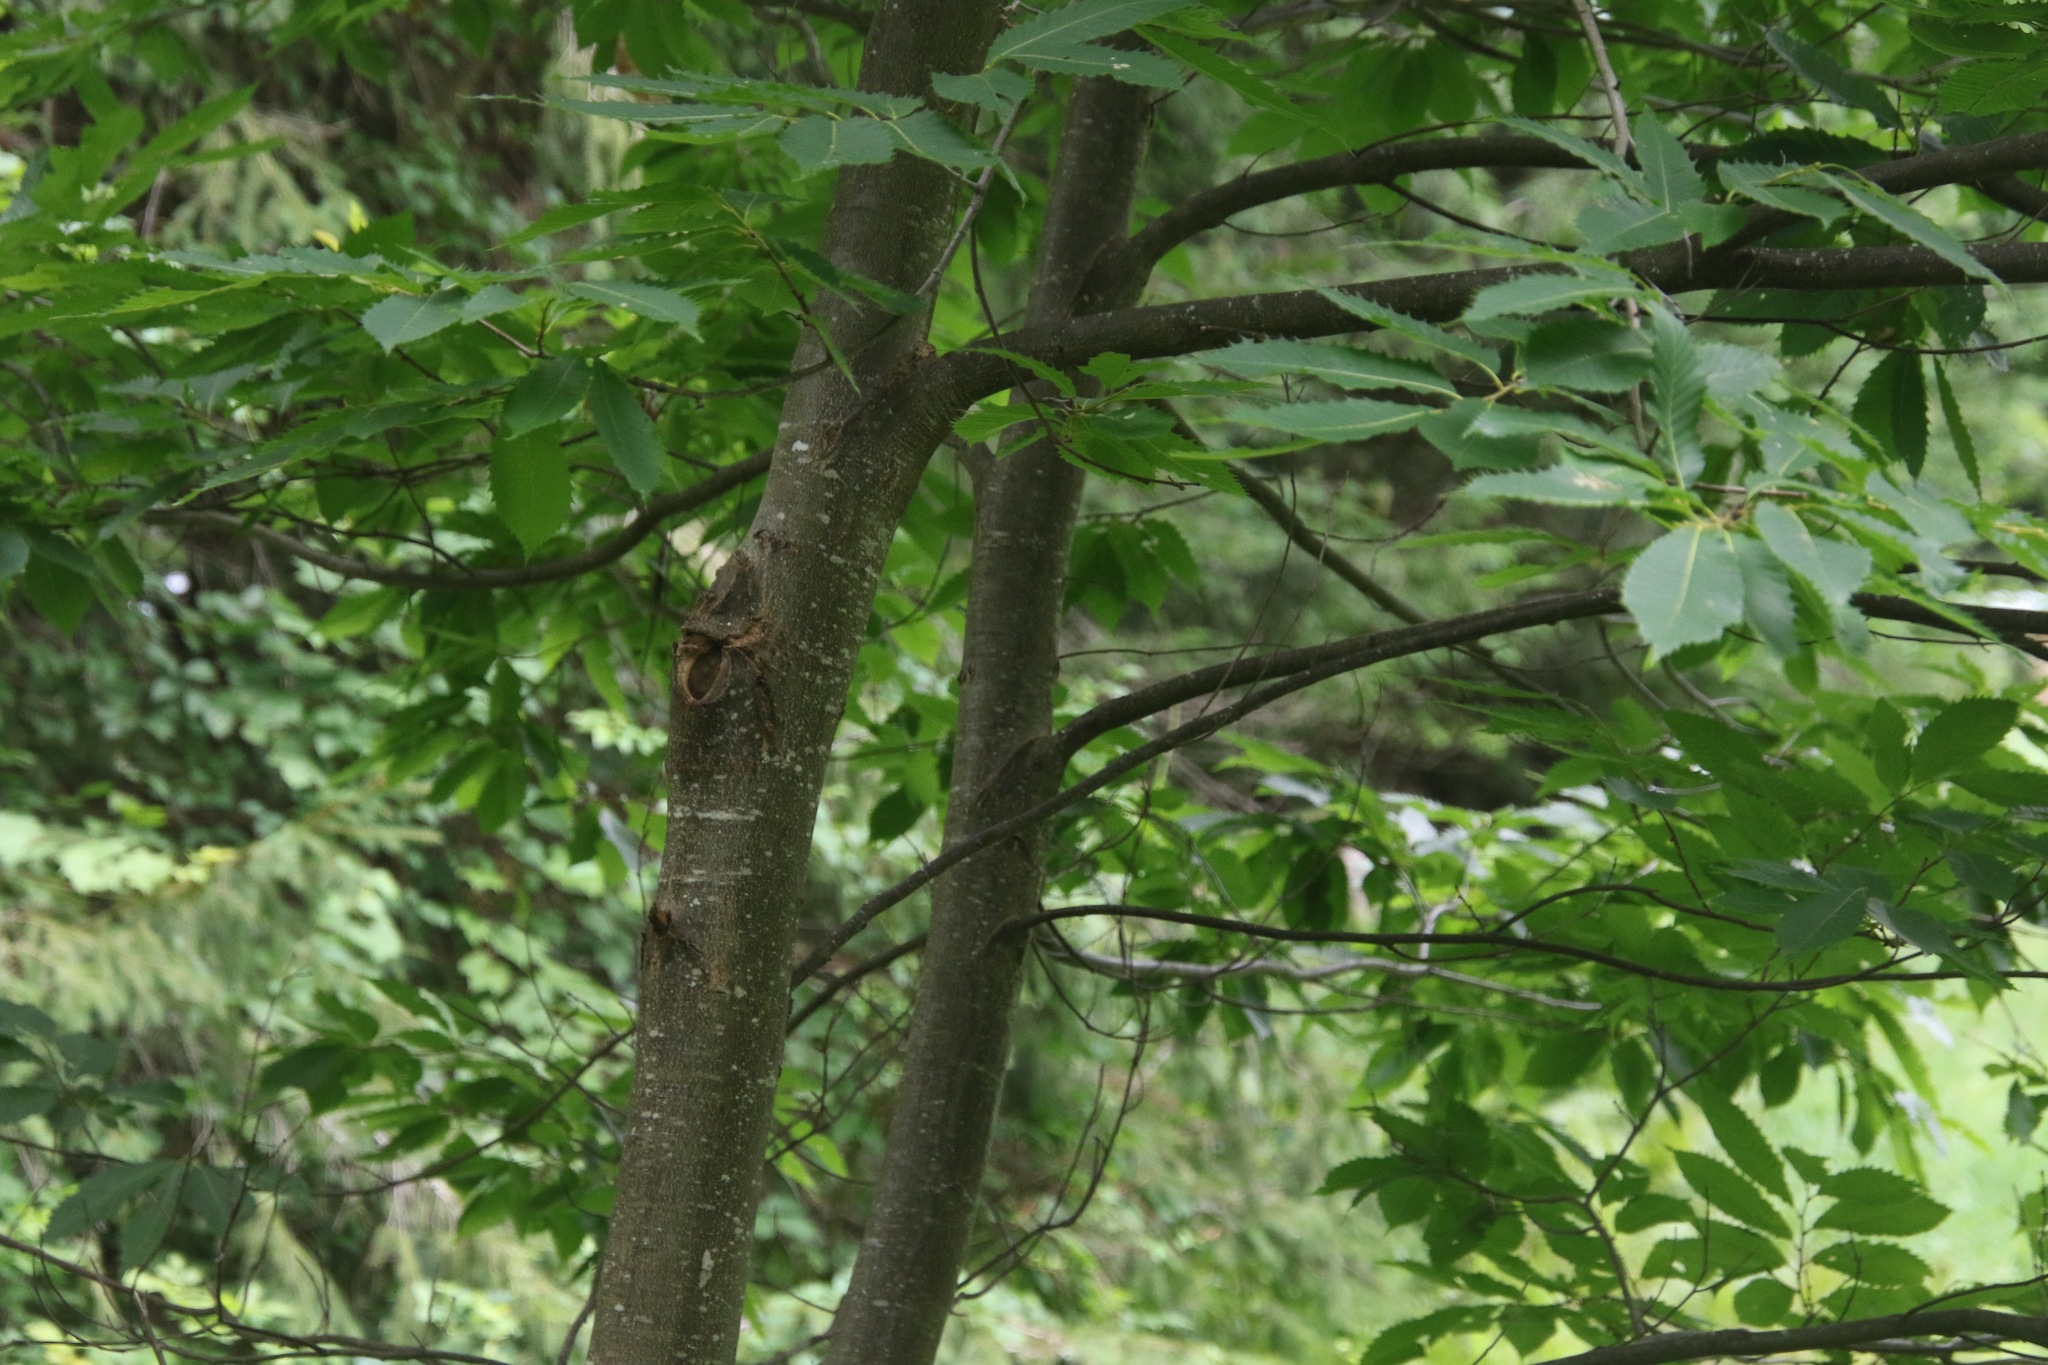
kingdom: Plantae
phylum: Tracheophyta
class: Magnoliopsida
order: Fagales
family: Fagaceae
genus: Castanea
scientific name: Castanea dentata
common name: American chestnut
